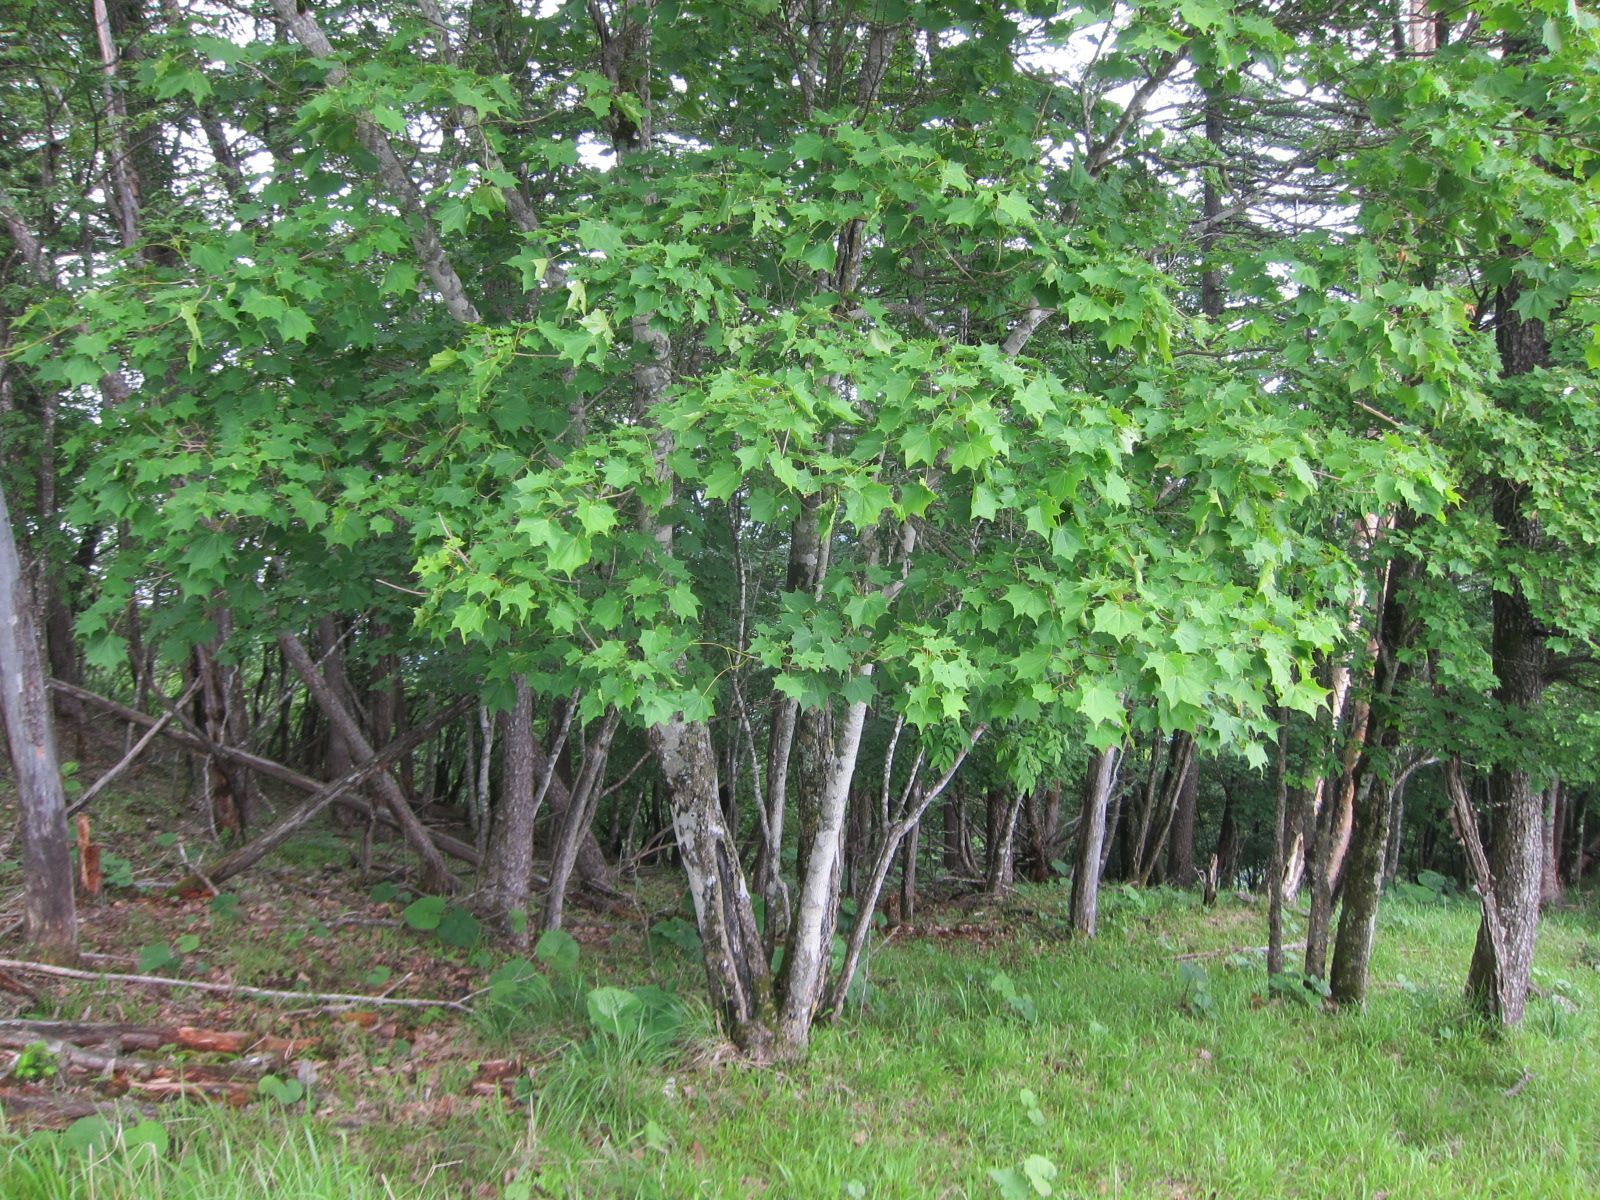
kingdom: Plantae
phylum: Tracheophyta
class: Magnoliopsida
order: Sapindales
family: Sapindaceae
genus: Acer
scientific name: Acer pictum
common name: The painted maple
